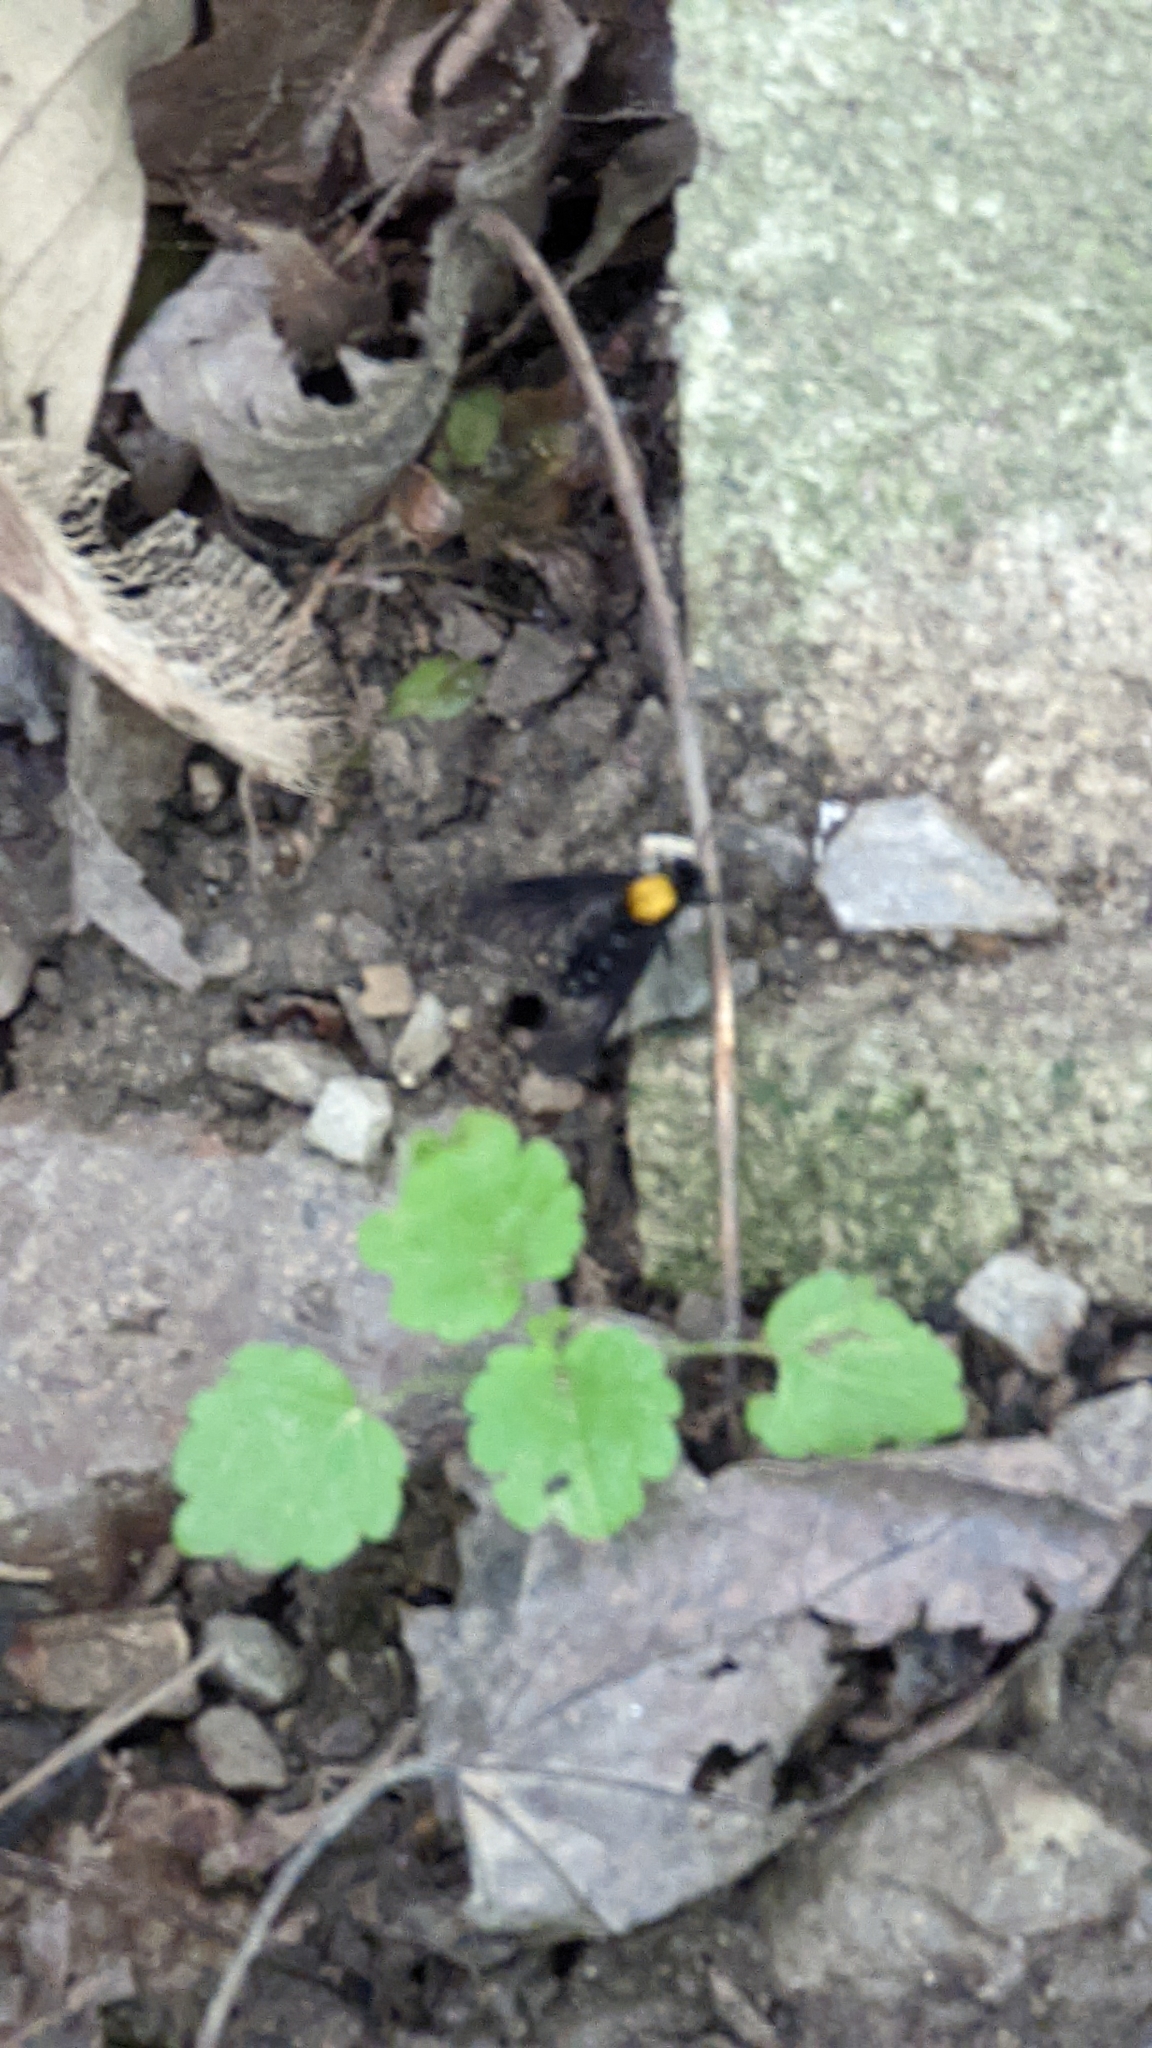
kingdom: Animalia
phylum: Arthropoda
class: Insecta
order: Diptera
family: Rhagionidae
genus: Chrysopilus
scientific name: Chrysopilus thoracicus
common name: Golden-backed snipe fly
